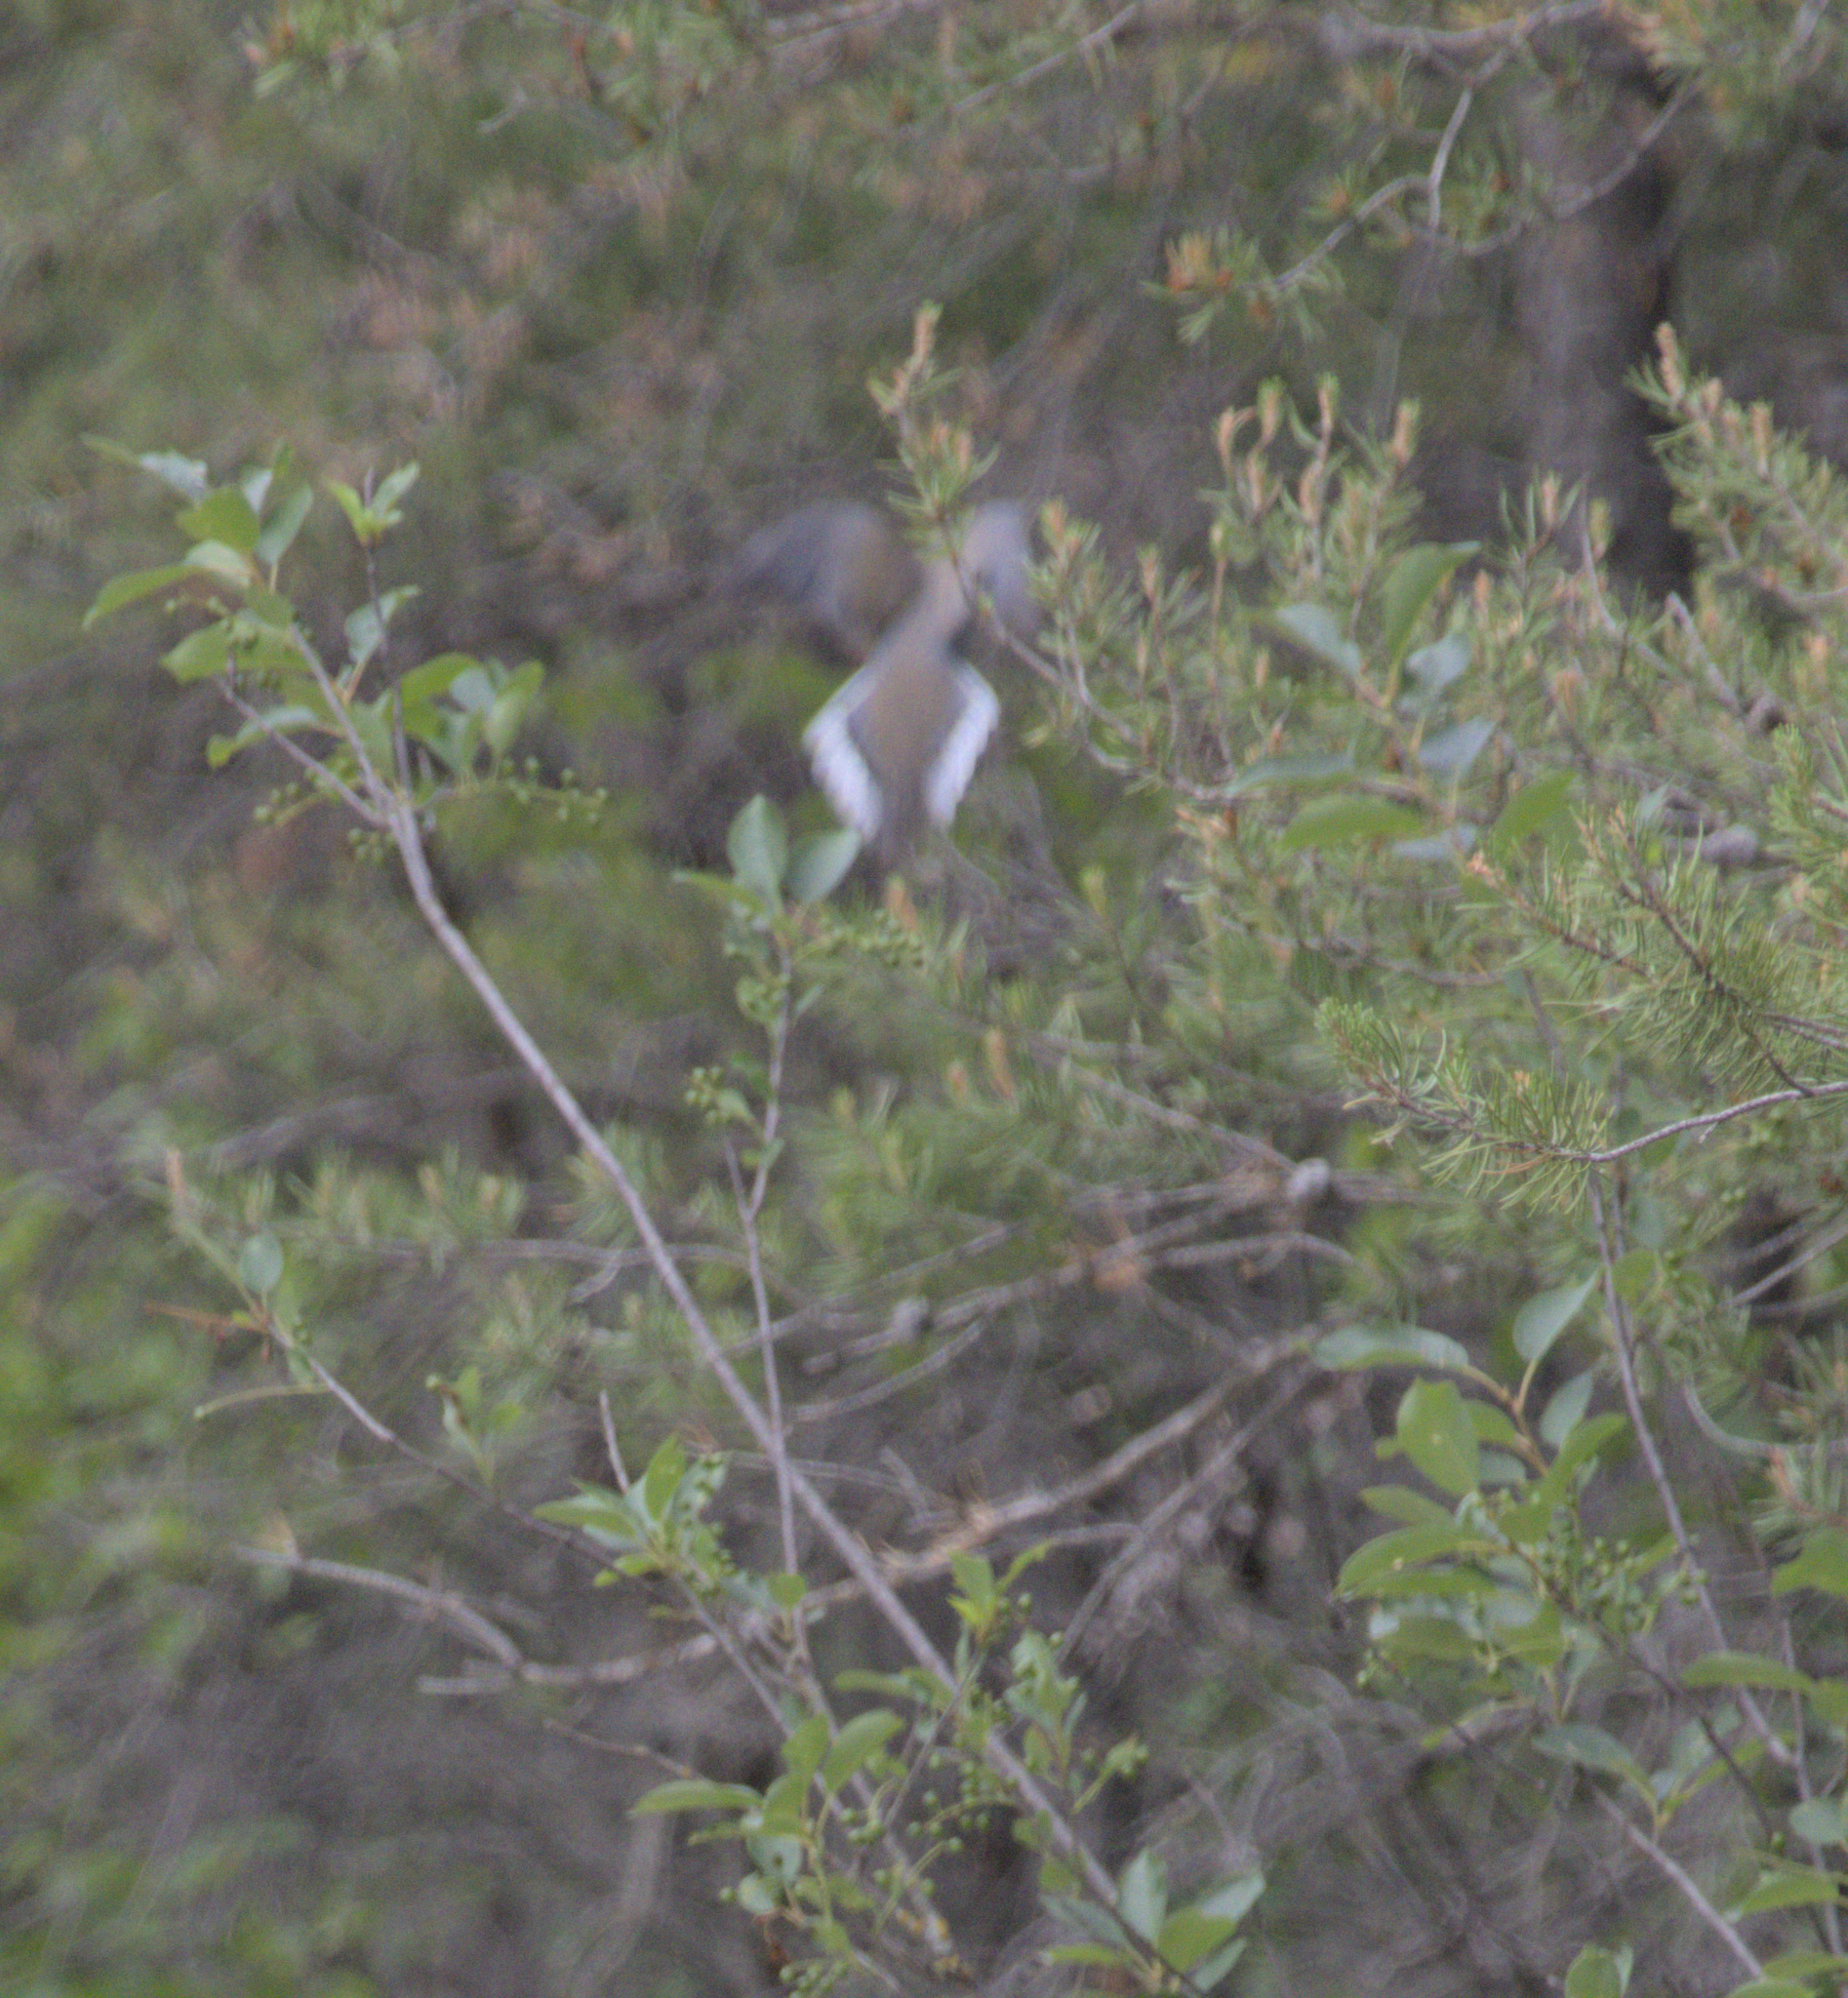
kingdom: Animalia
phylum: Chordata
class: Aves
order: Columbiformes
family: Columbidae
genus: Zenaida
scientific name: Zenaida macroura
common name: Mourning dove
